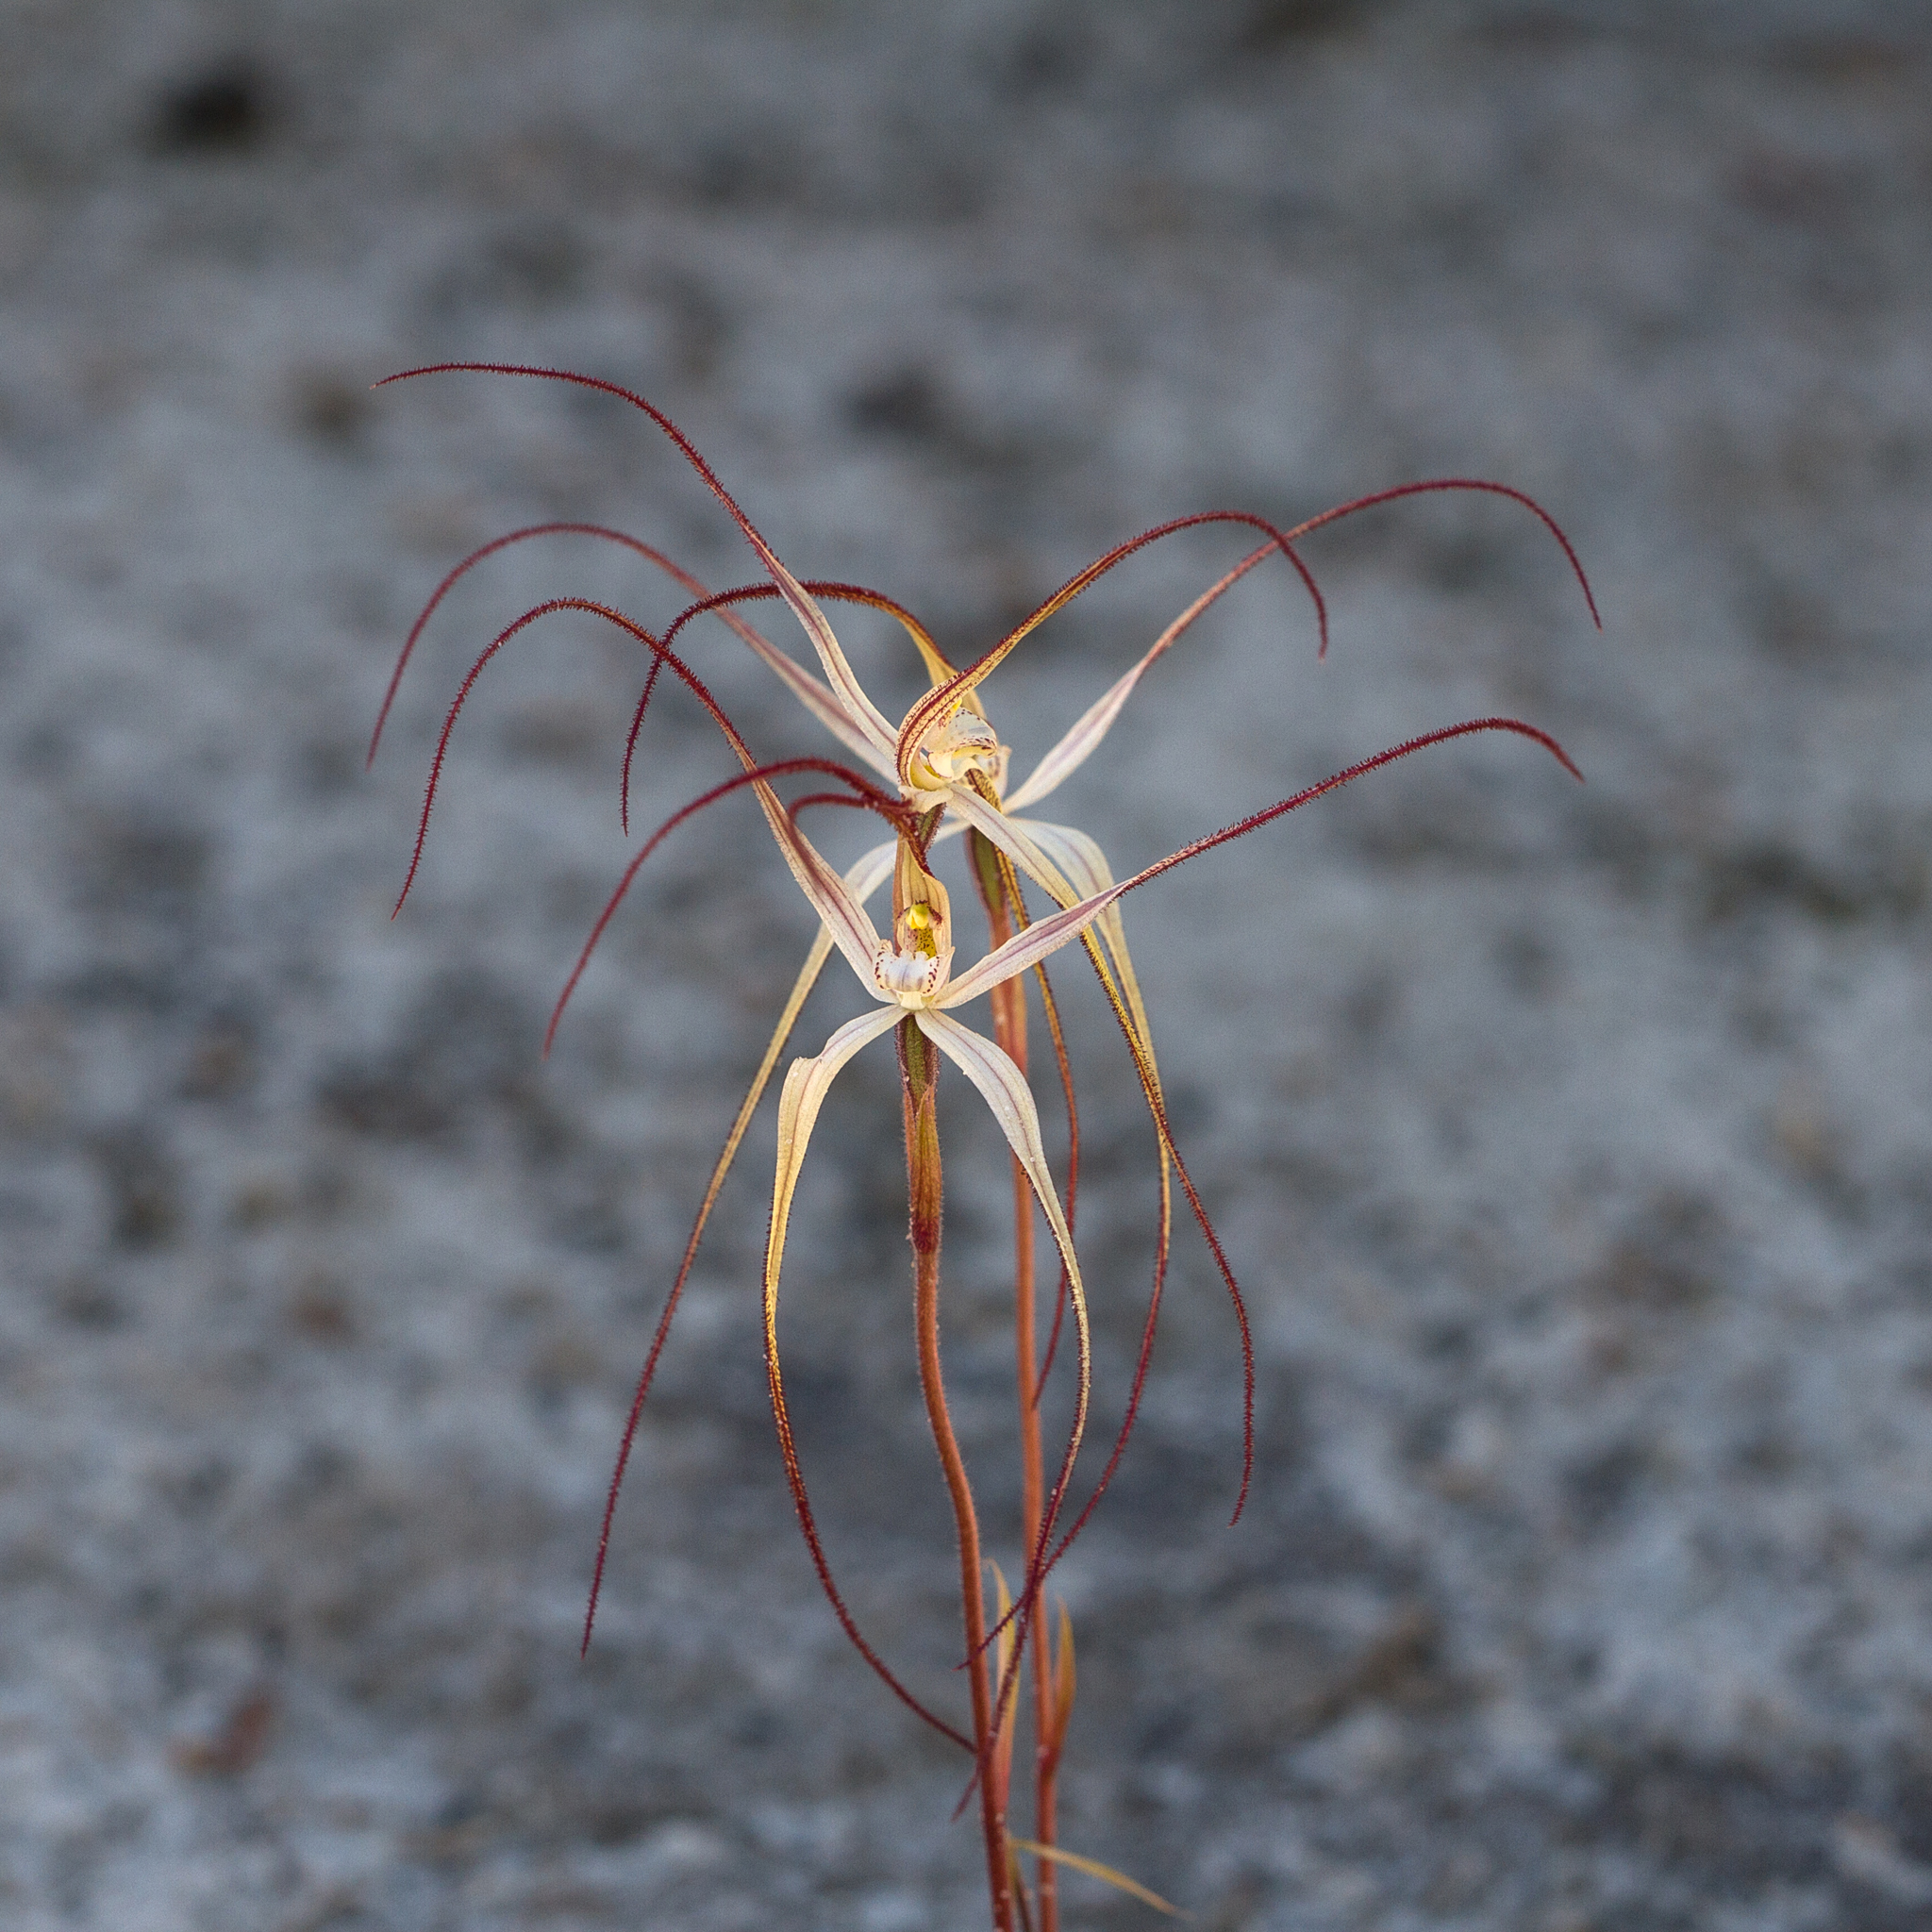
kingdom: Plantae
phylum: Tracheophyta
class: Liliopsida
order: Asparagales
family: Orchidaceae
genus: Caladenia
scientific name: Caladenia capillata
